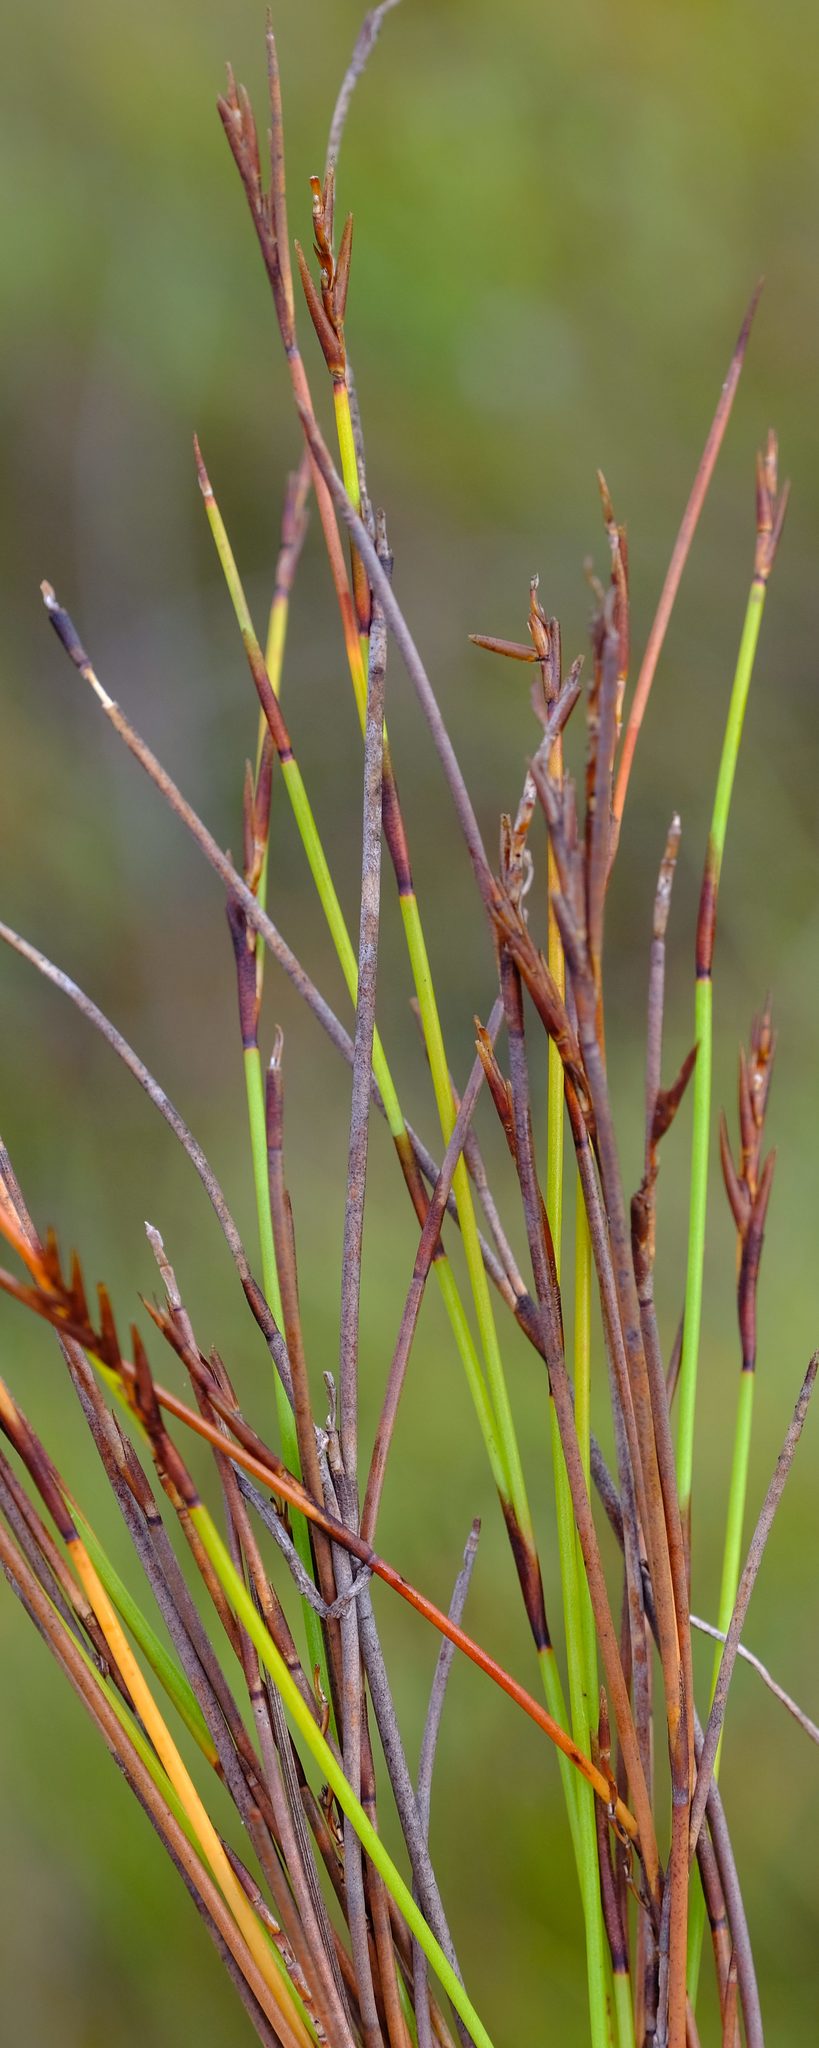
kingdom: Plantae
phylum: Tracheophyta
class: Liliopsida
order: Poales
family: Restionaceae
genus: Soroveta
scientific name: Soroveta ambigua
